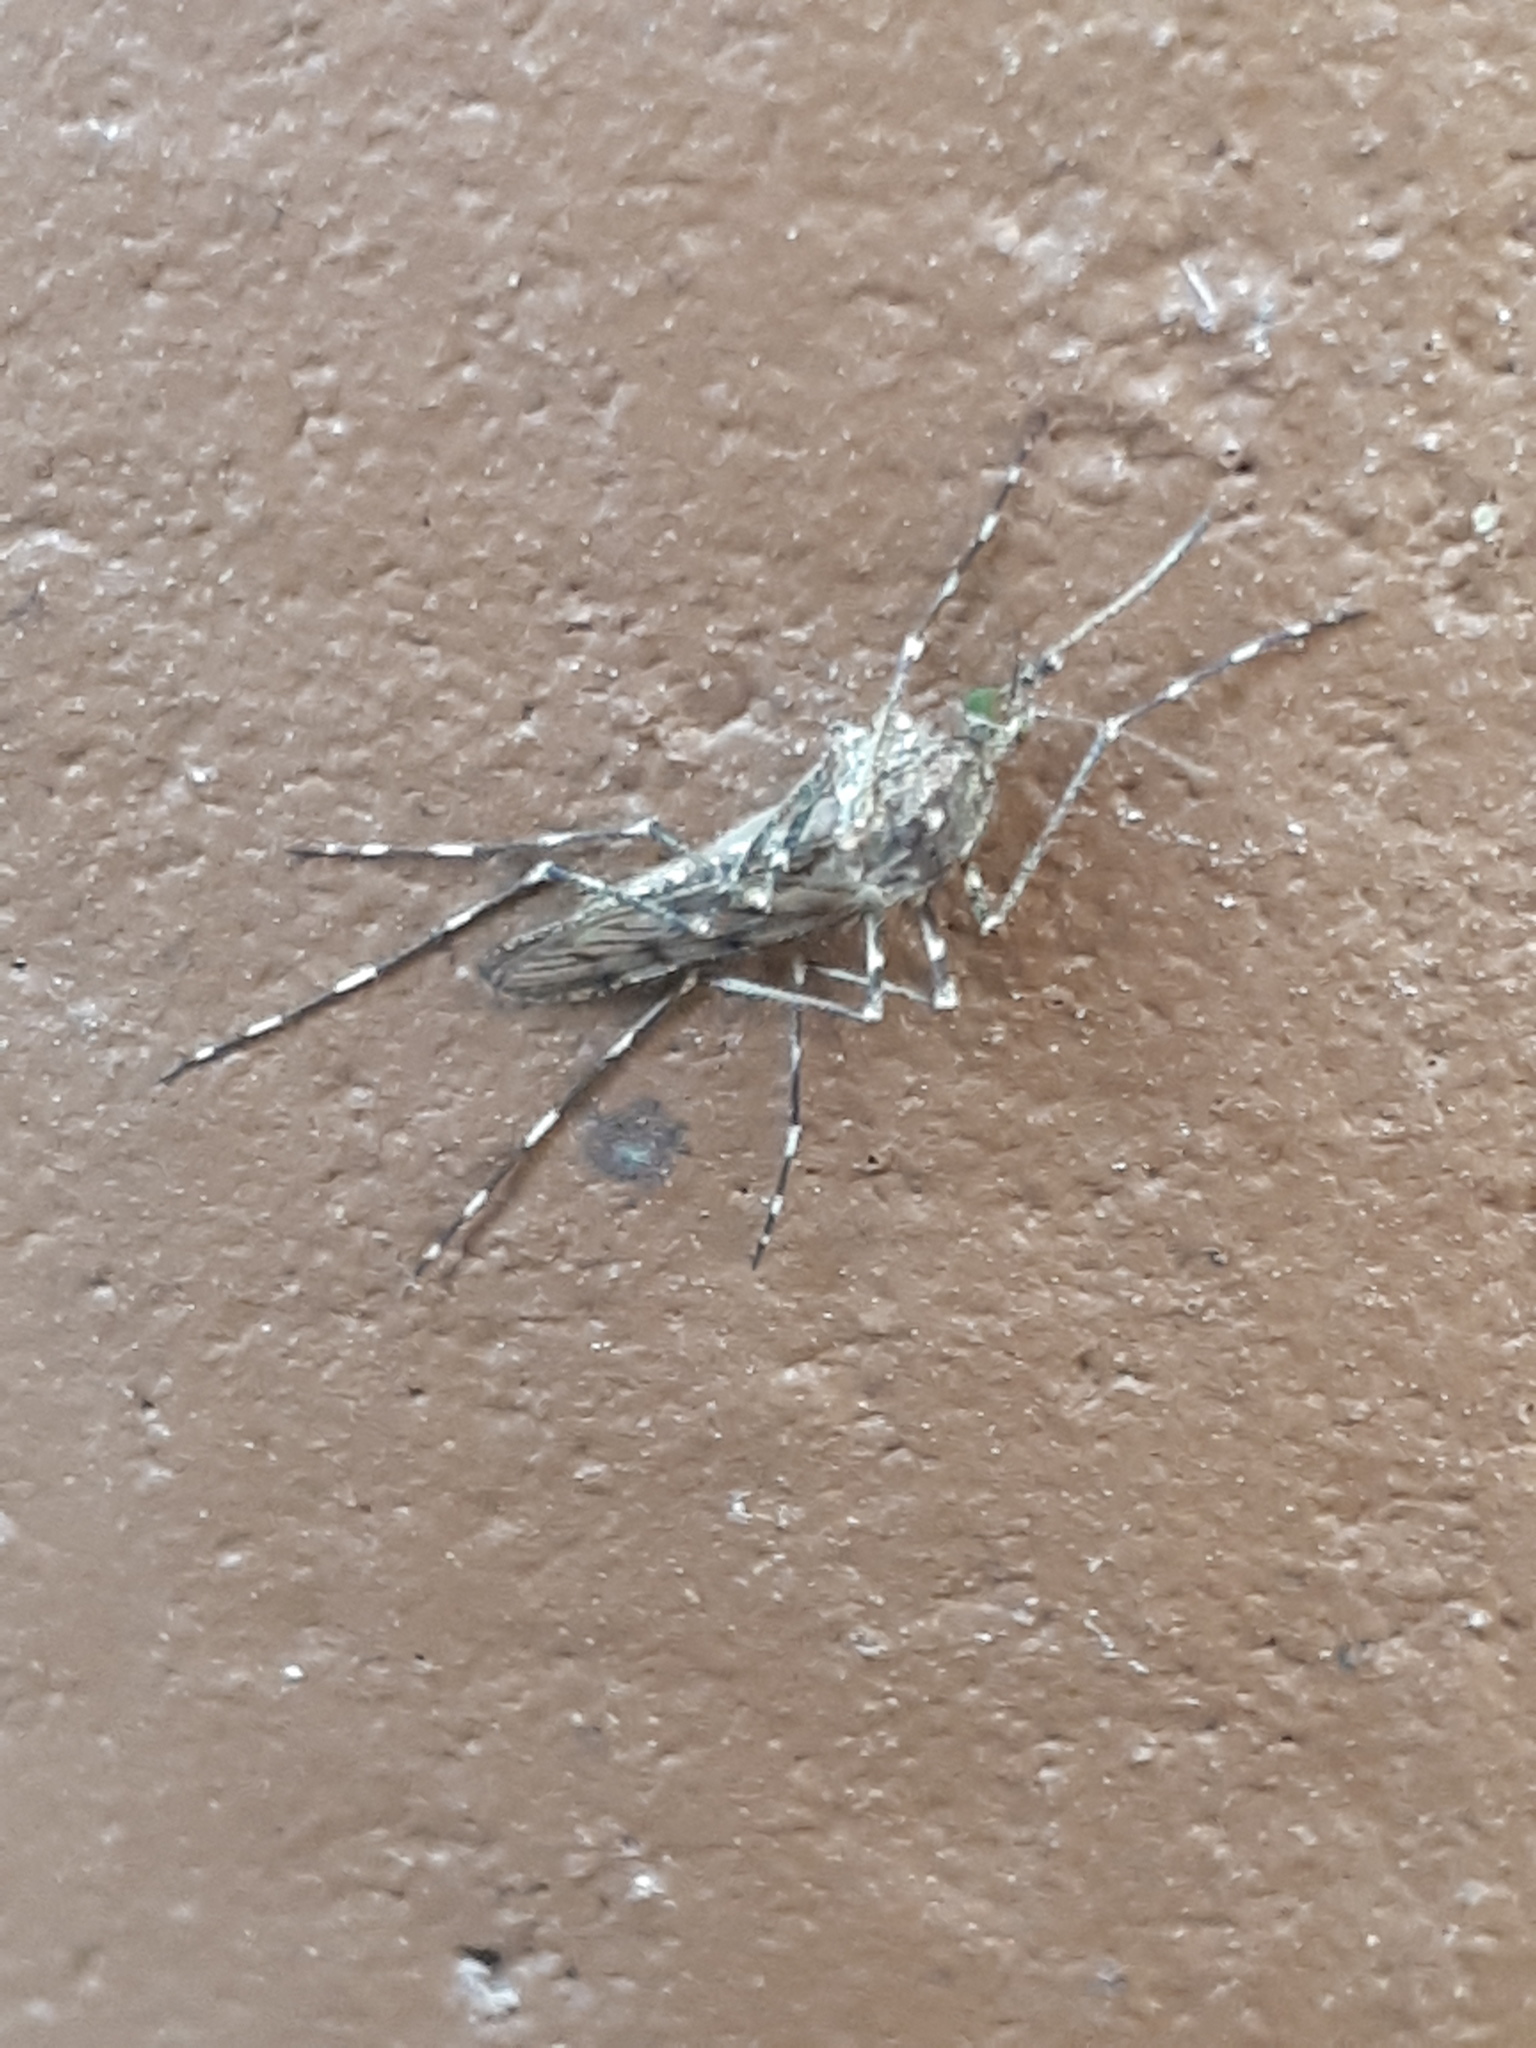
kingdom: Animalia
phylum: Arthropoda
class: Insecta
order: Diptera
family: Culicidae
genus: Culiseta
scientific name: Culiseta annulata
